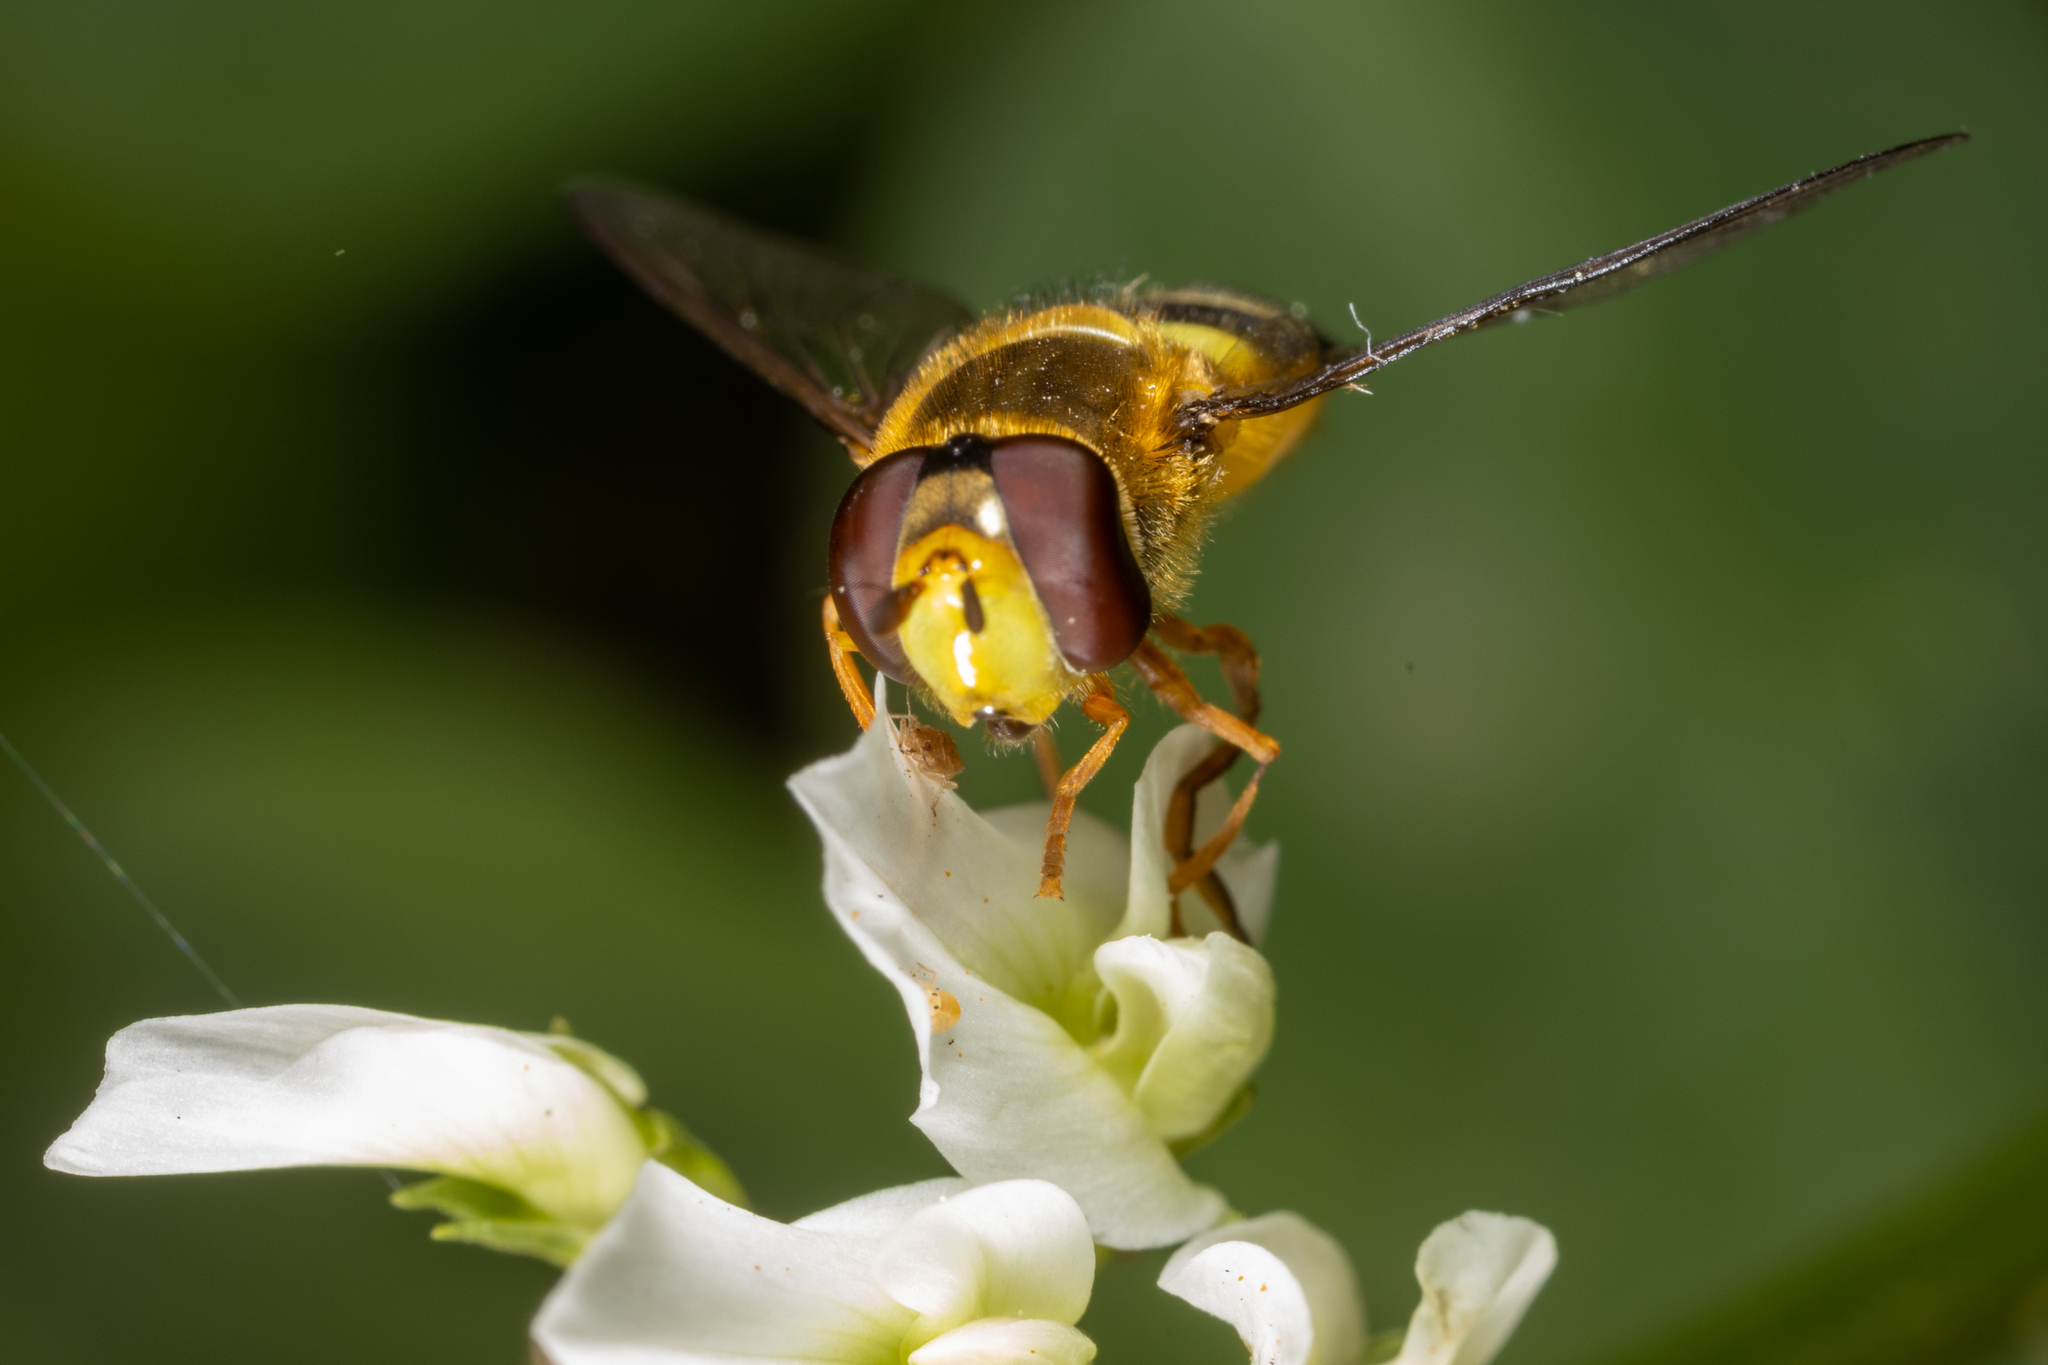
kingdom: Animalia
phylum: Arthropoda
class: Insecta
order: Diptera
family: Syrphidae
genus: Syrphus
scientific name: Syrphus opinator
